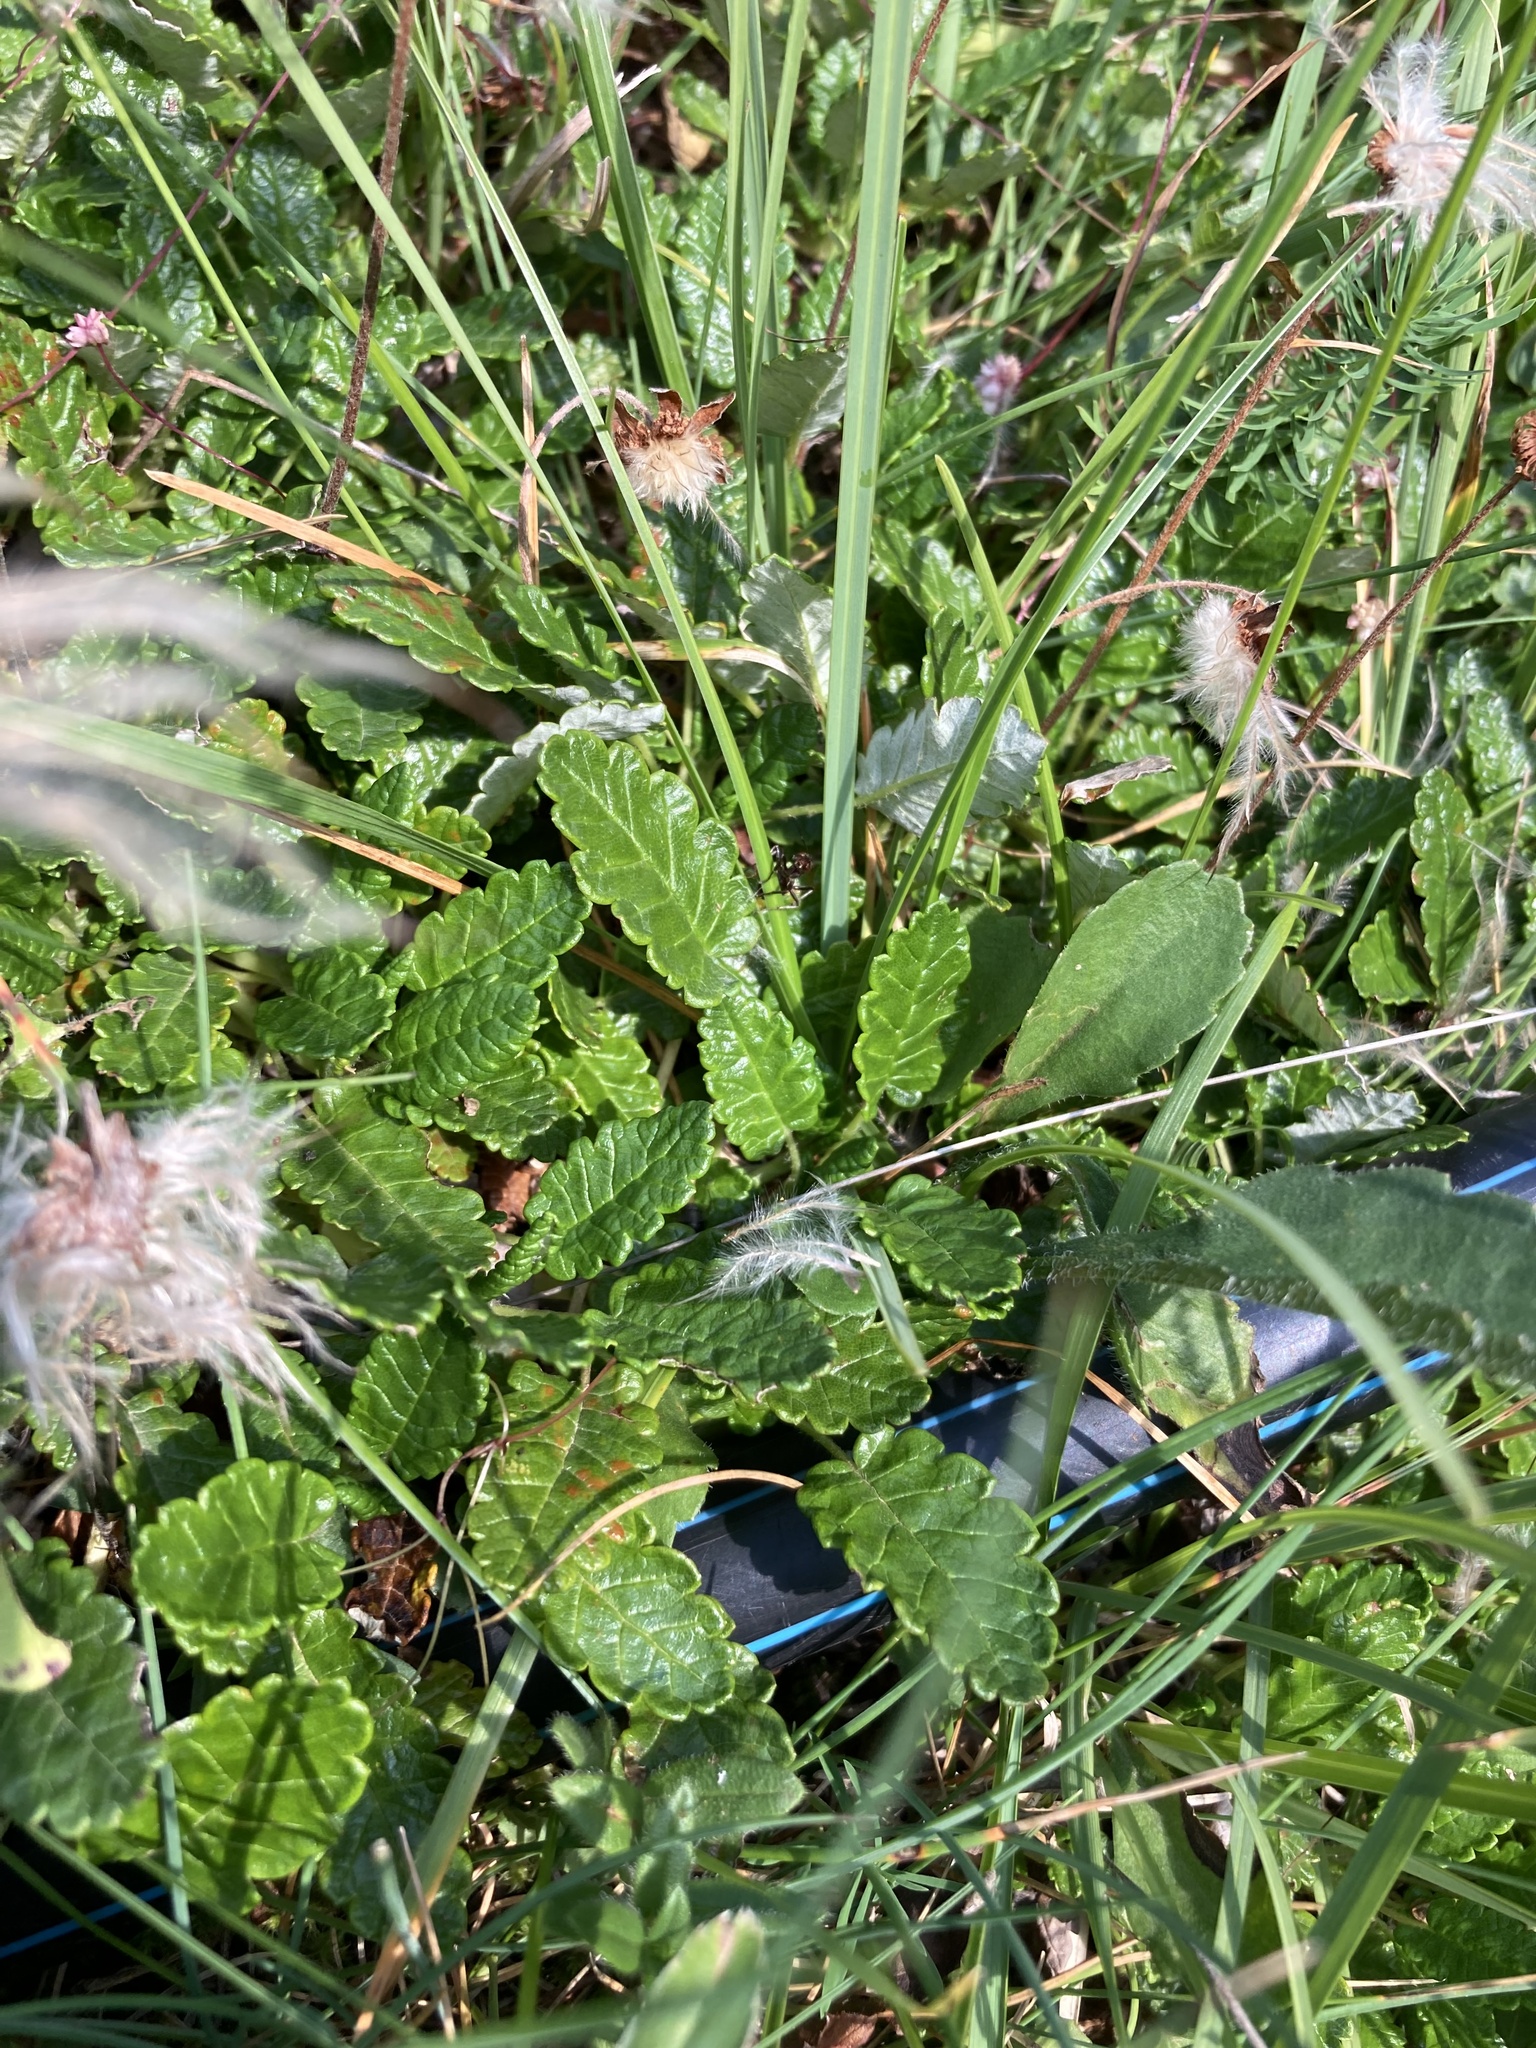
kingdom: Plantae
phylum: Tracheophyta
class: Magnoliopsida
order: Rosales
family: Rosaceae
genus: Dryas
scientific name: Dryas octopetala
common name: Eight-petal mountain-avens
